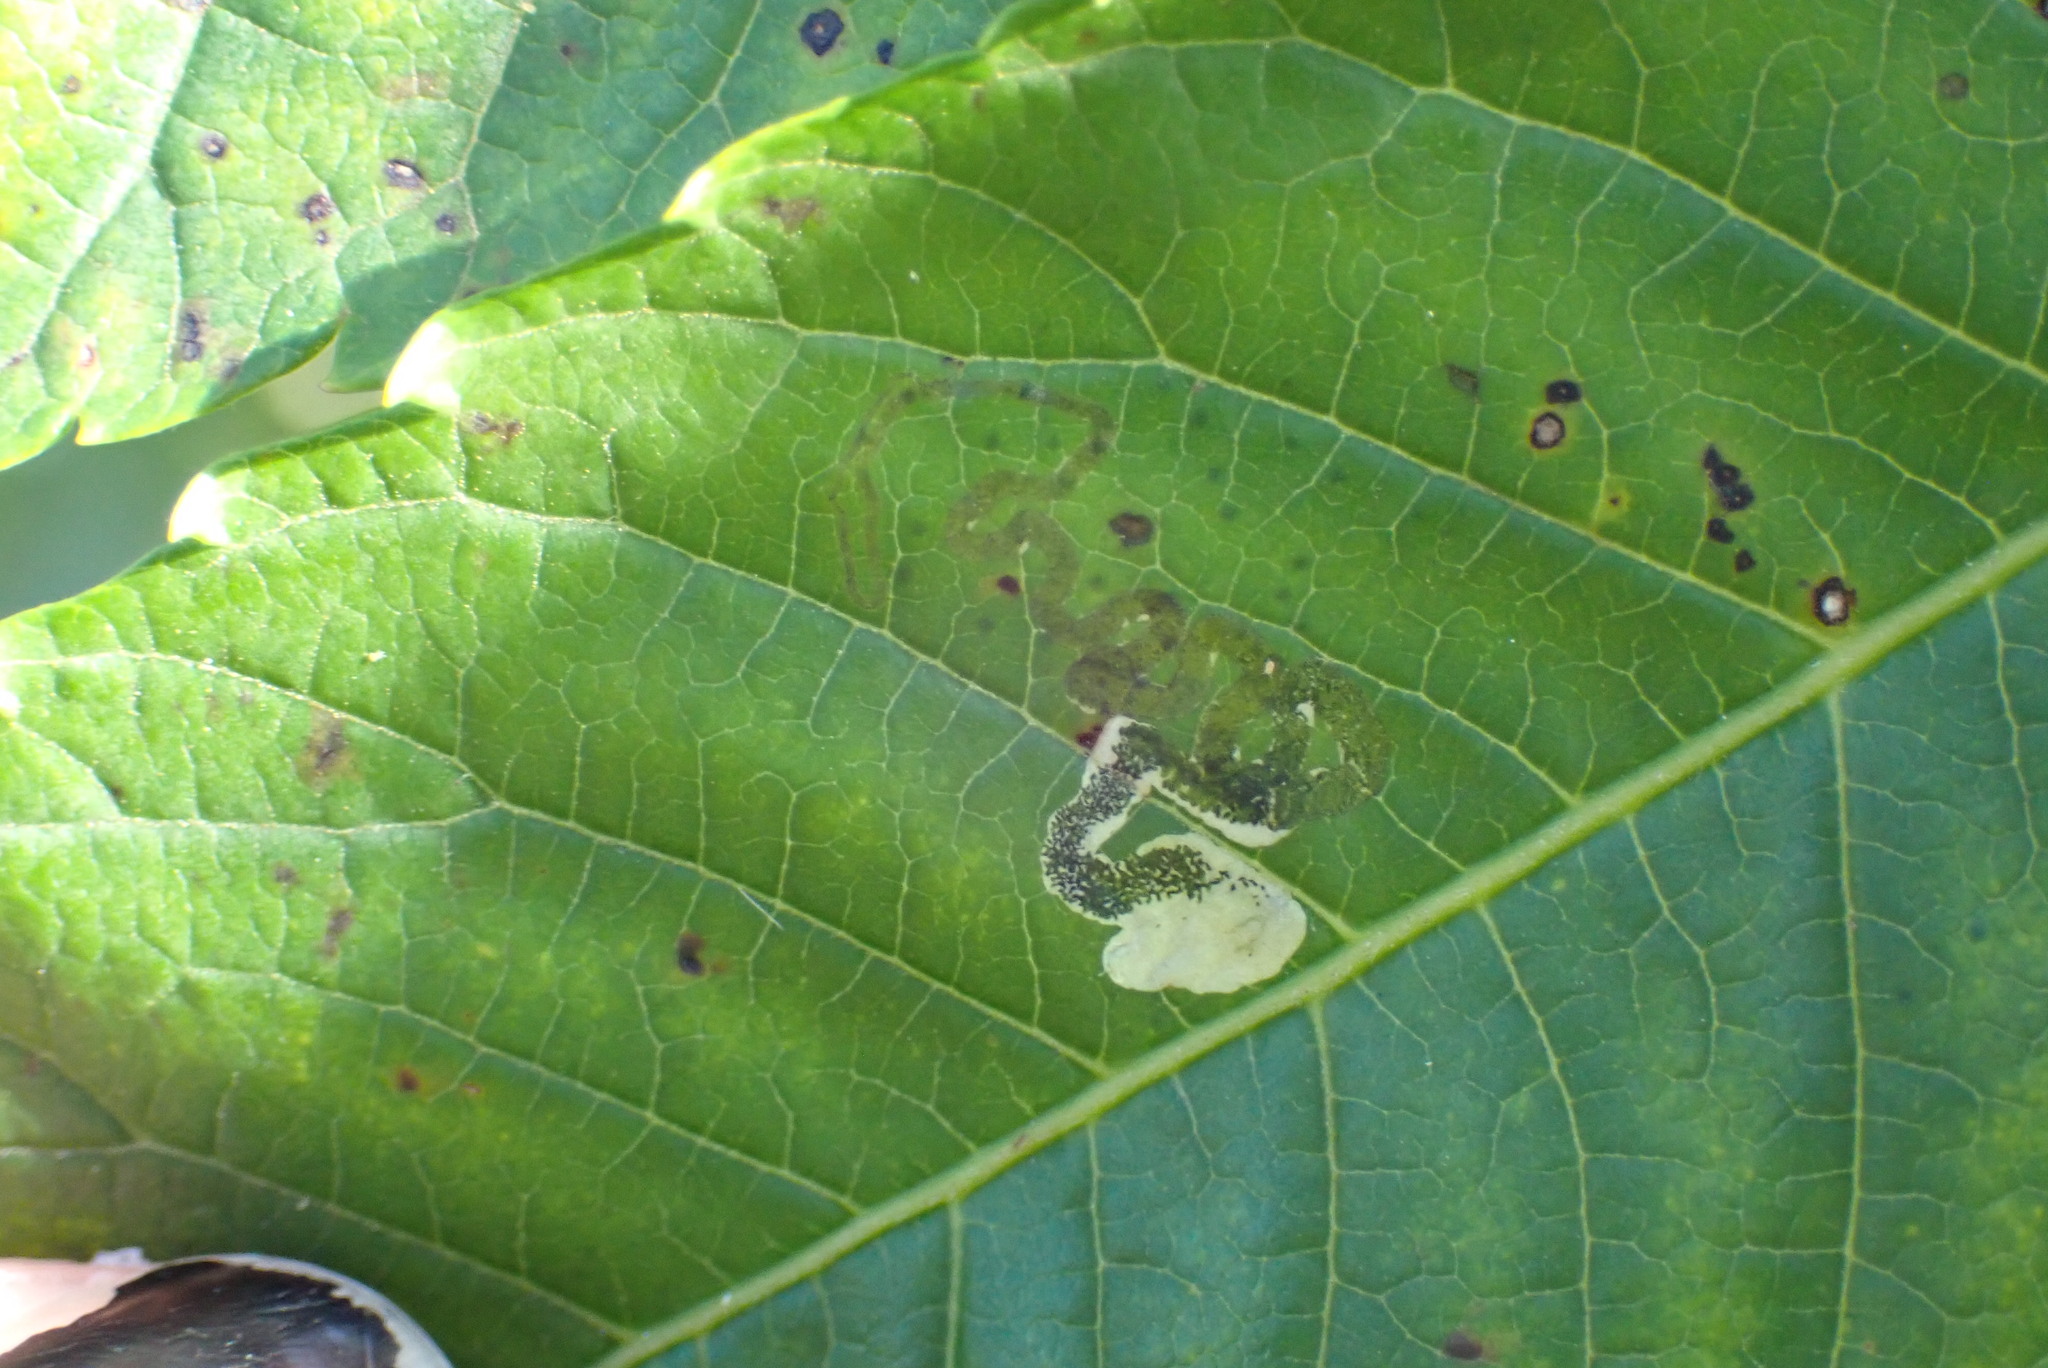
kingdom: Animalia
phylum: Arthropoda
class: Insecta
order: Lepidoptera
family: Nepticulidae
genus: Stigmella
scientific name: Stigmella intermedia
